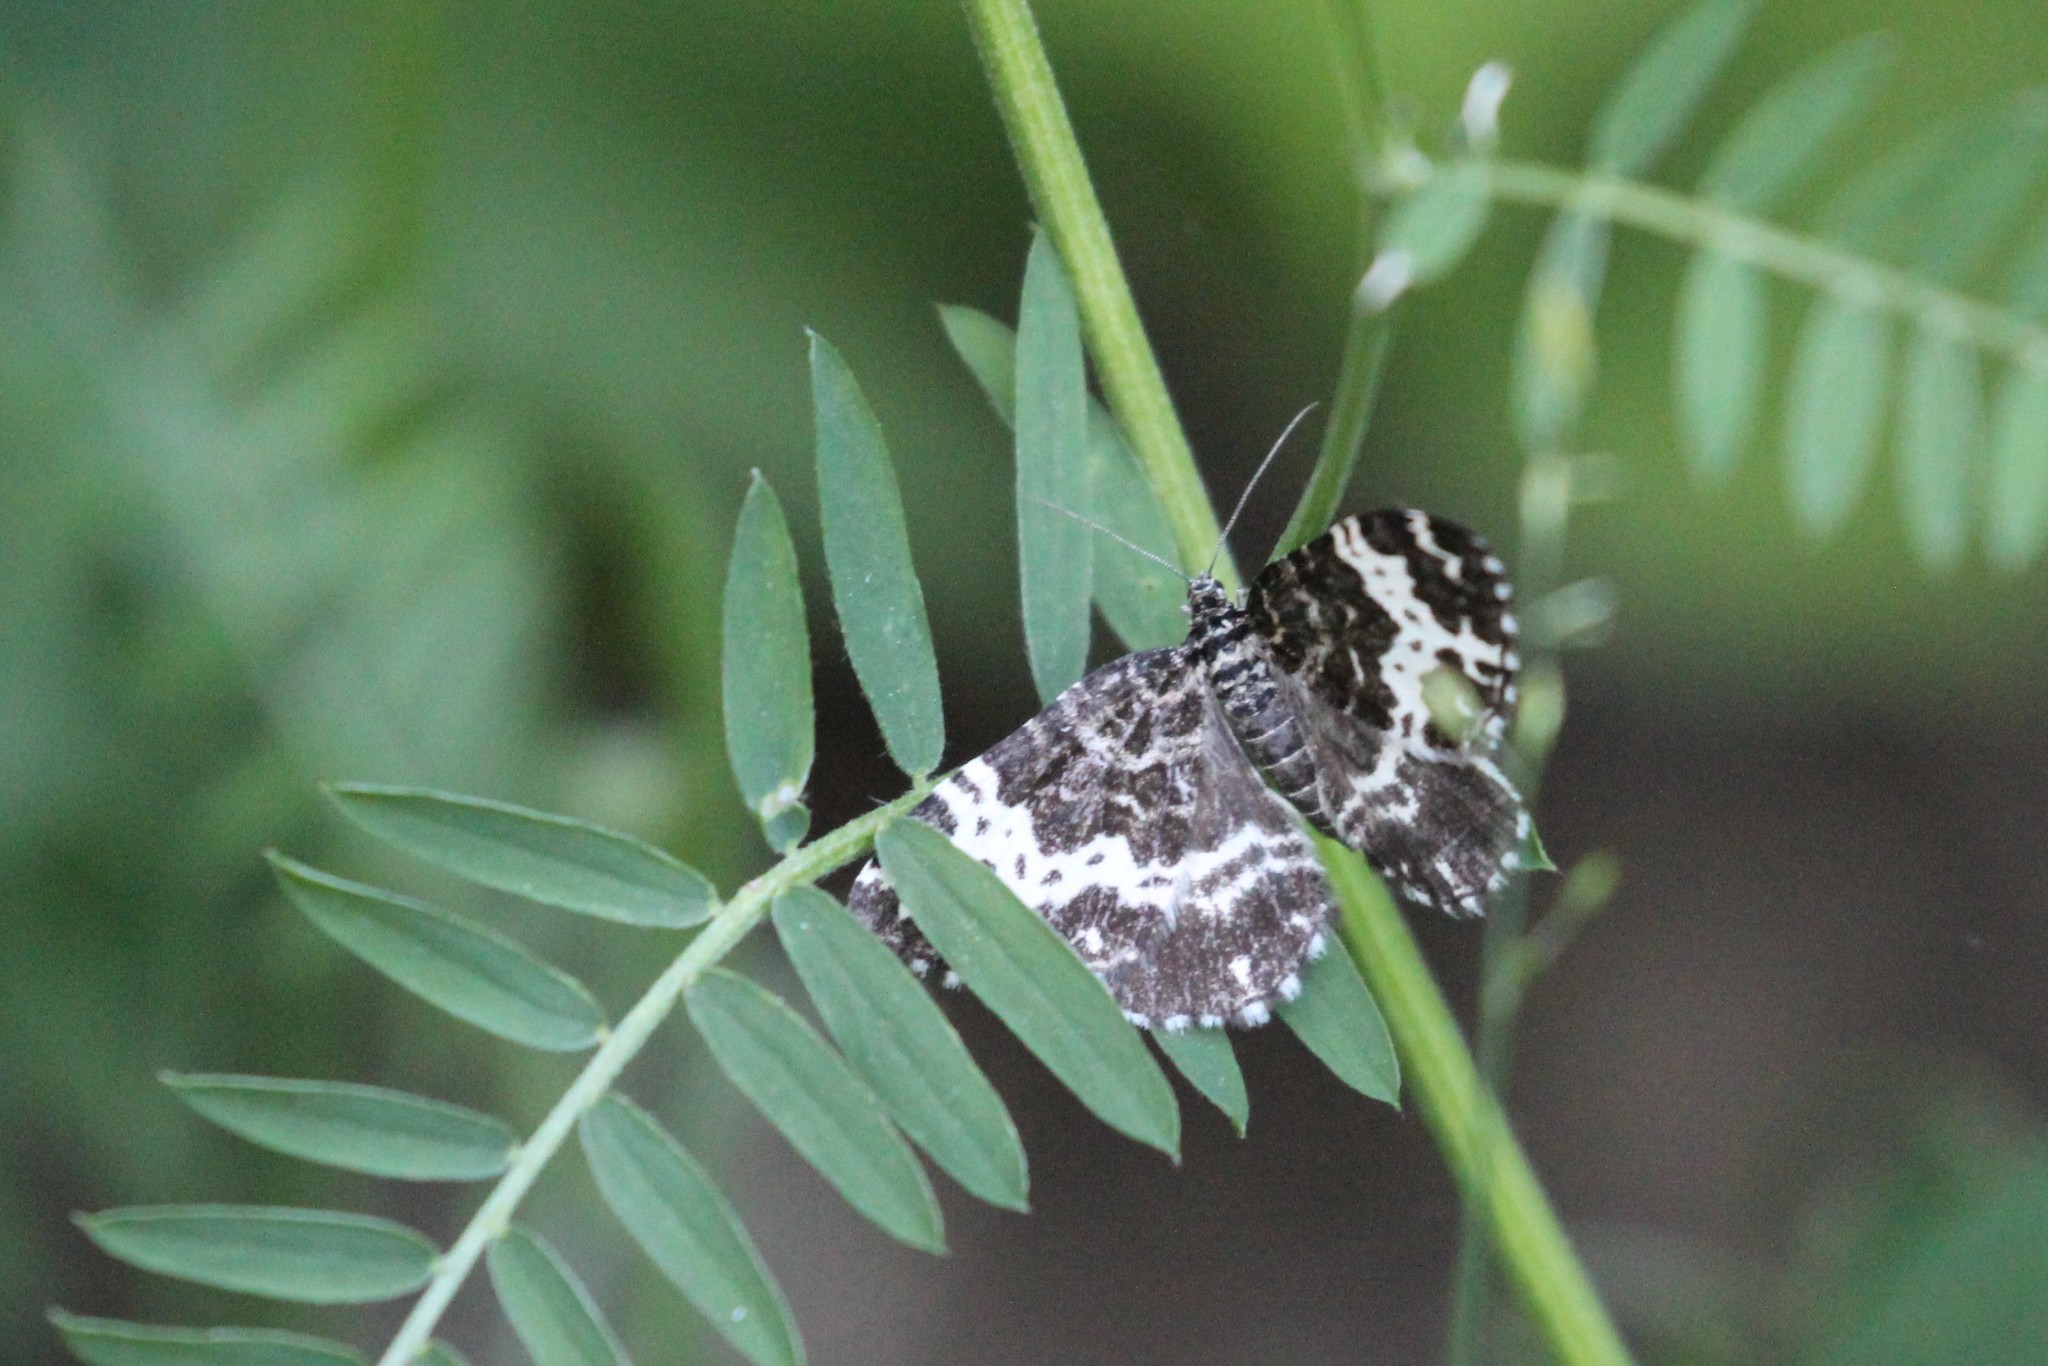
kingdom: Animalia
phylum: Arthropoda
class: Insecta
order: Lepidoptera
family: Geometridae
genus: Rheumaptera
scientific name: Rheumaptera
